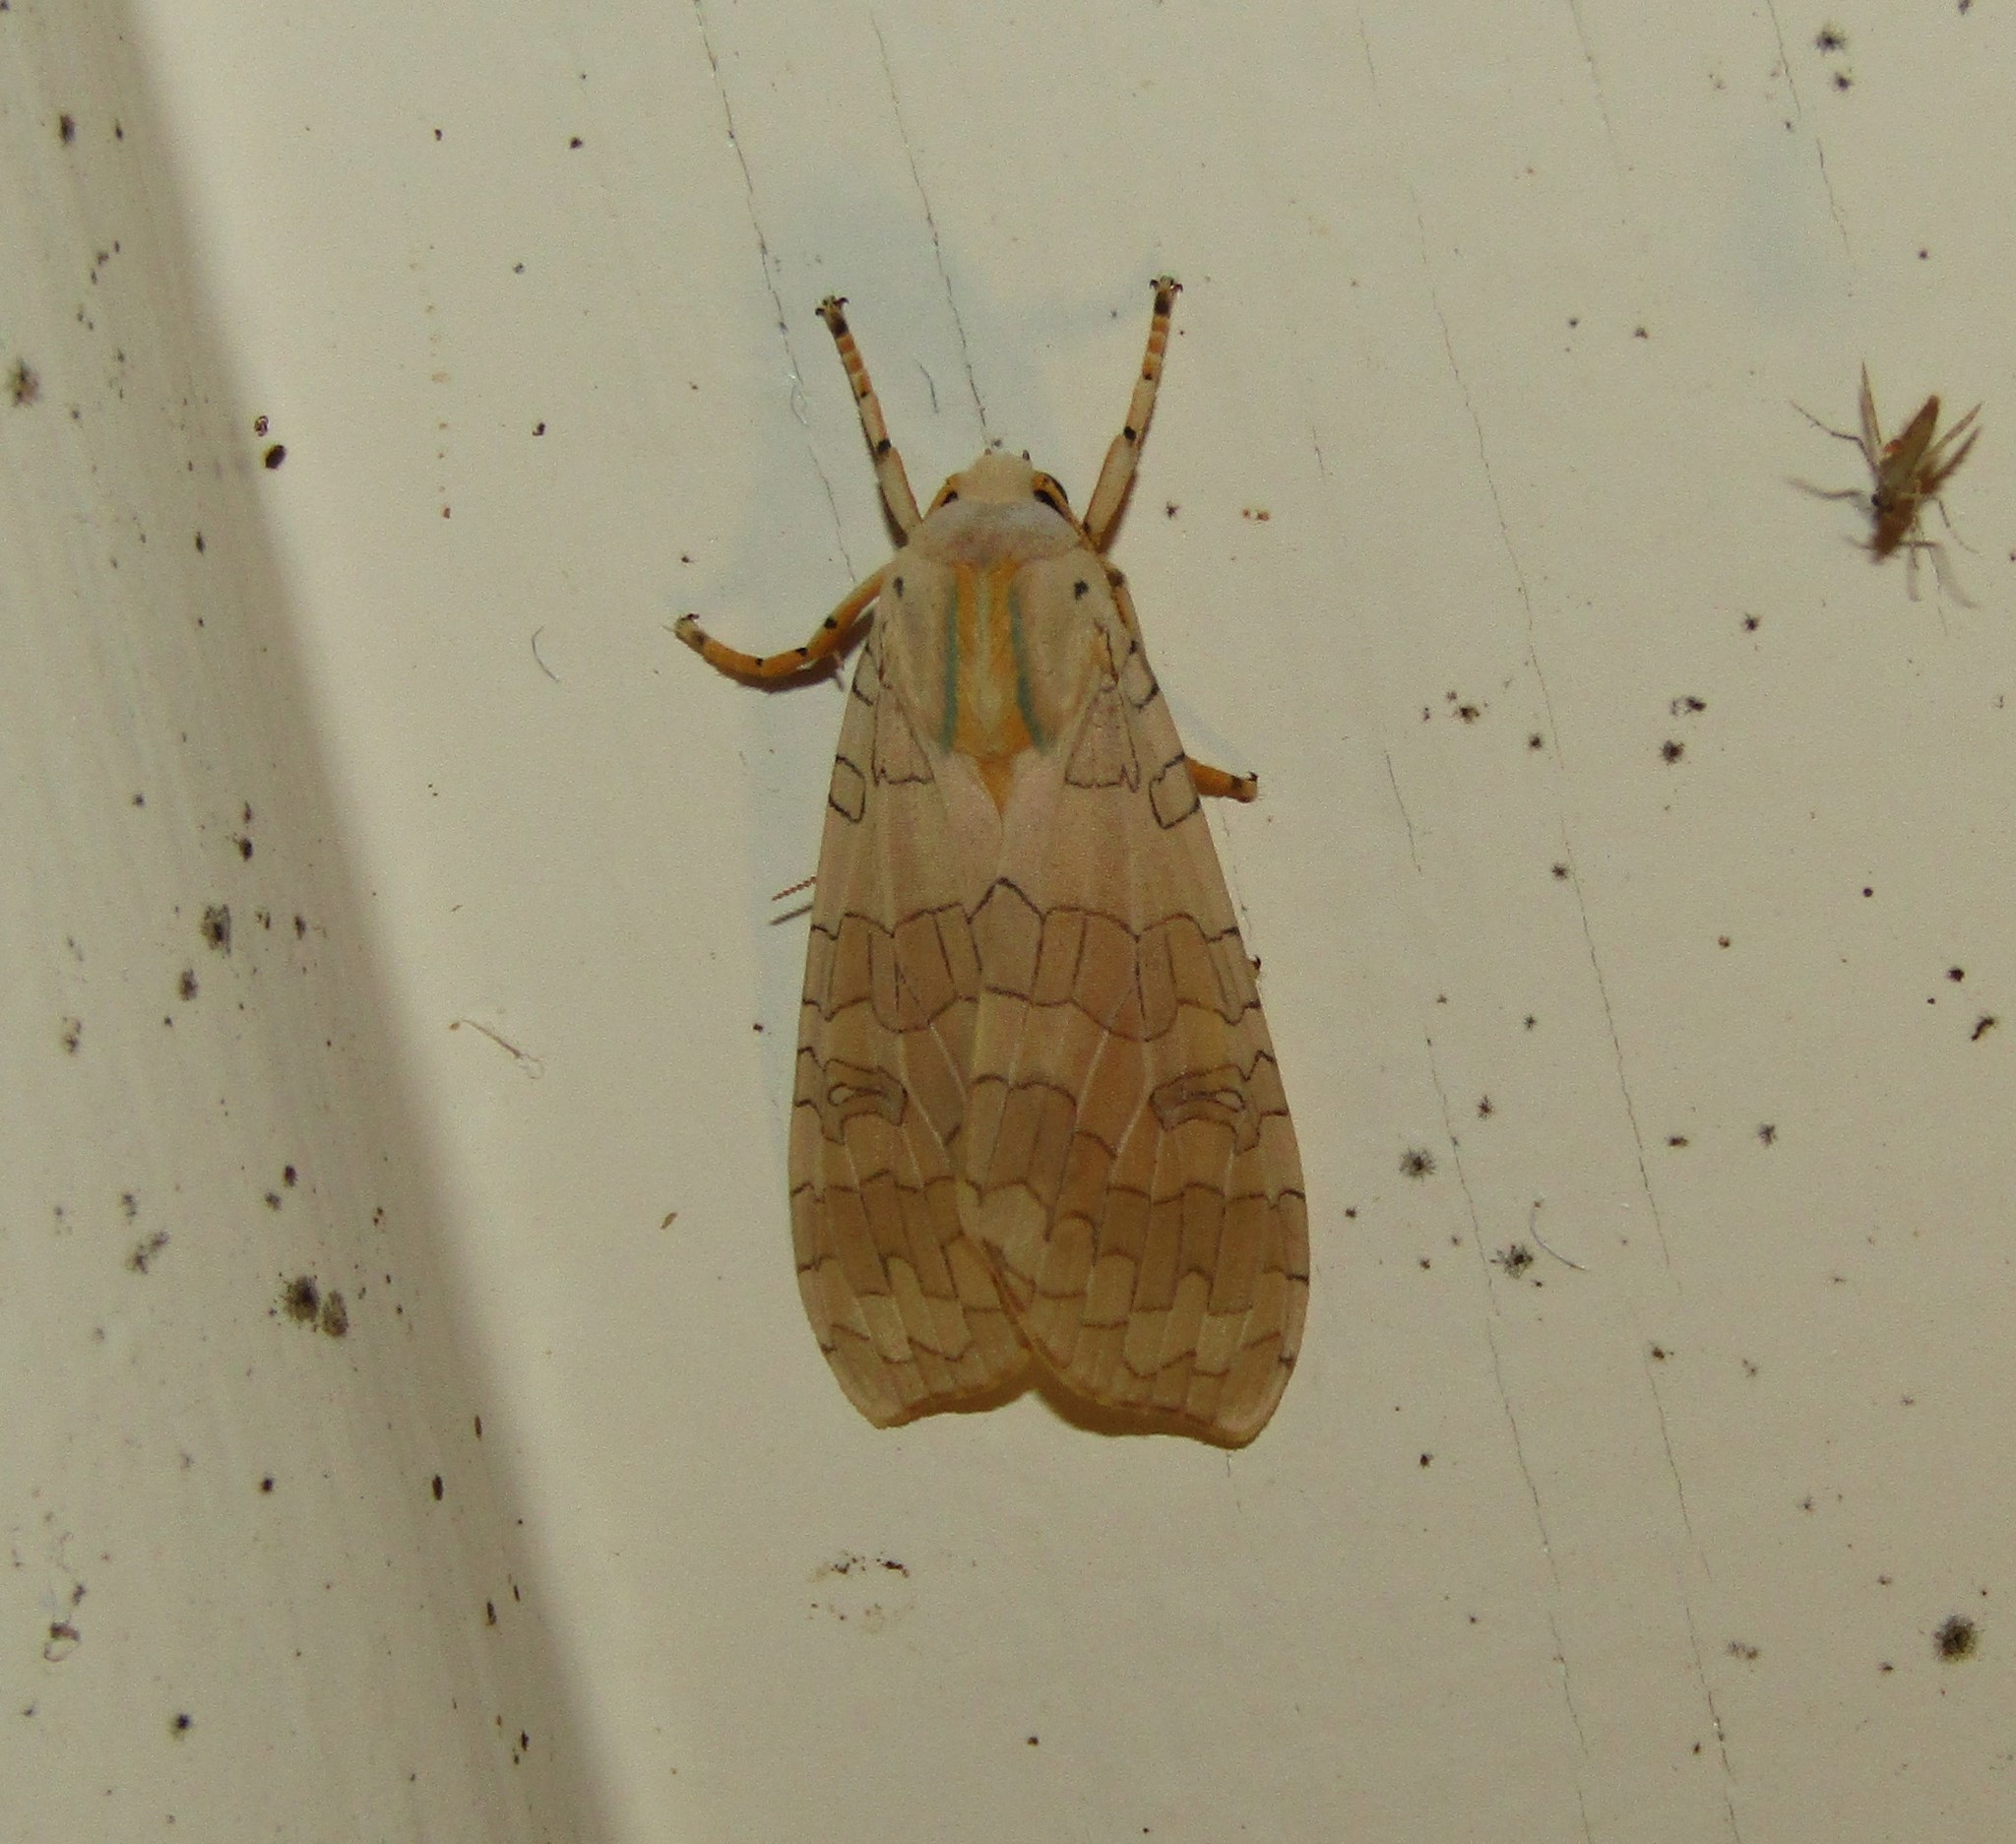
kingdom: Animalia
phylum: Arthropoda
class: Insecta
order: Lepidoptera
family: Erebidae
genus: Halysidota
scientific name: Halysidota
